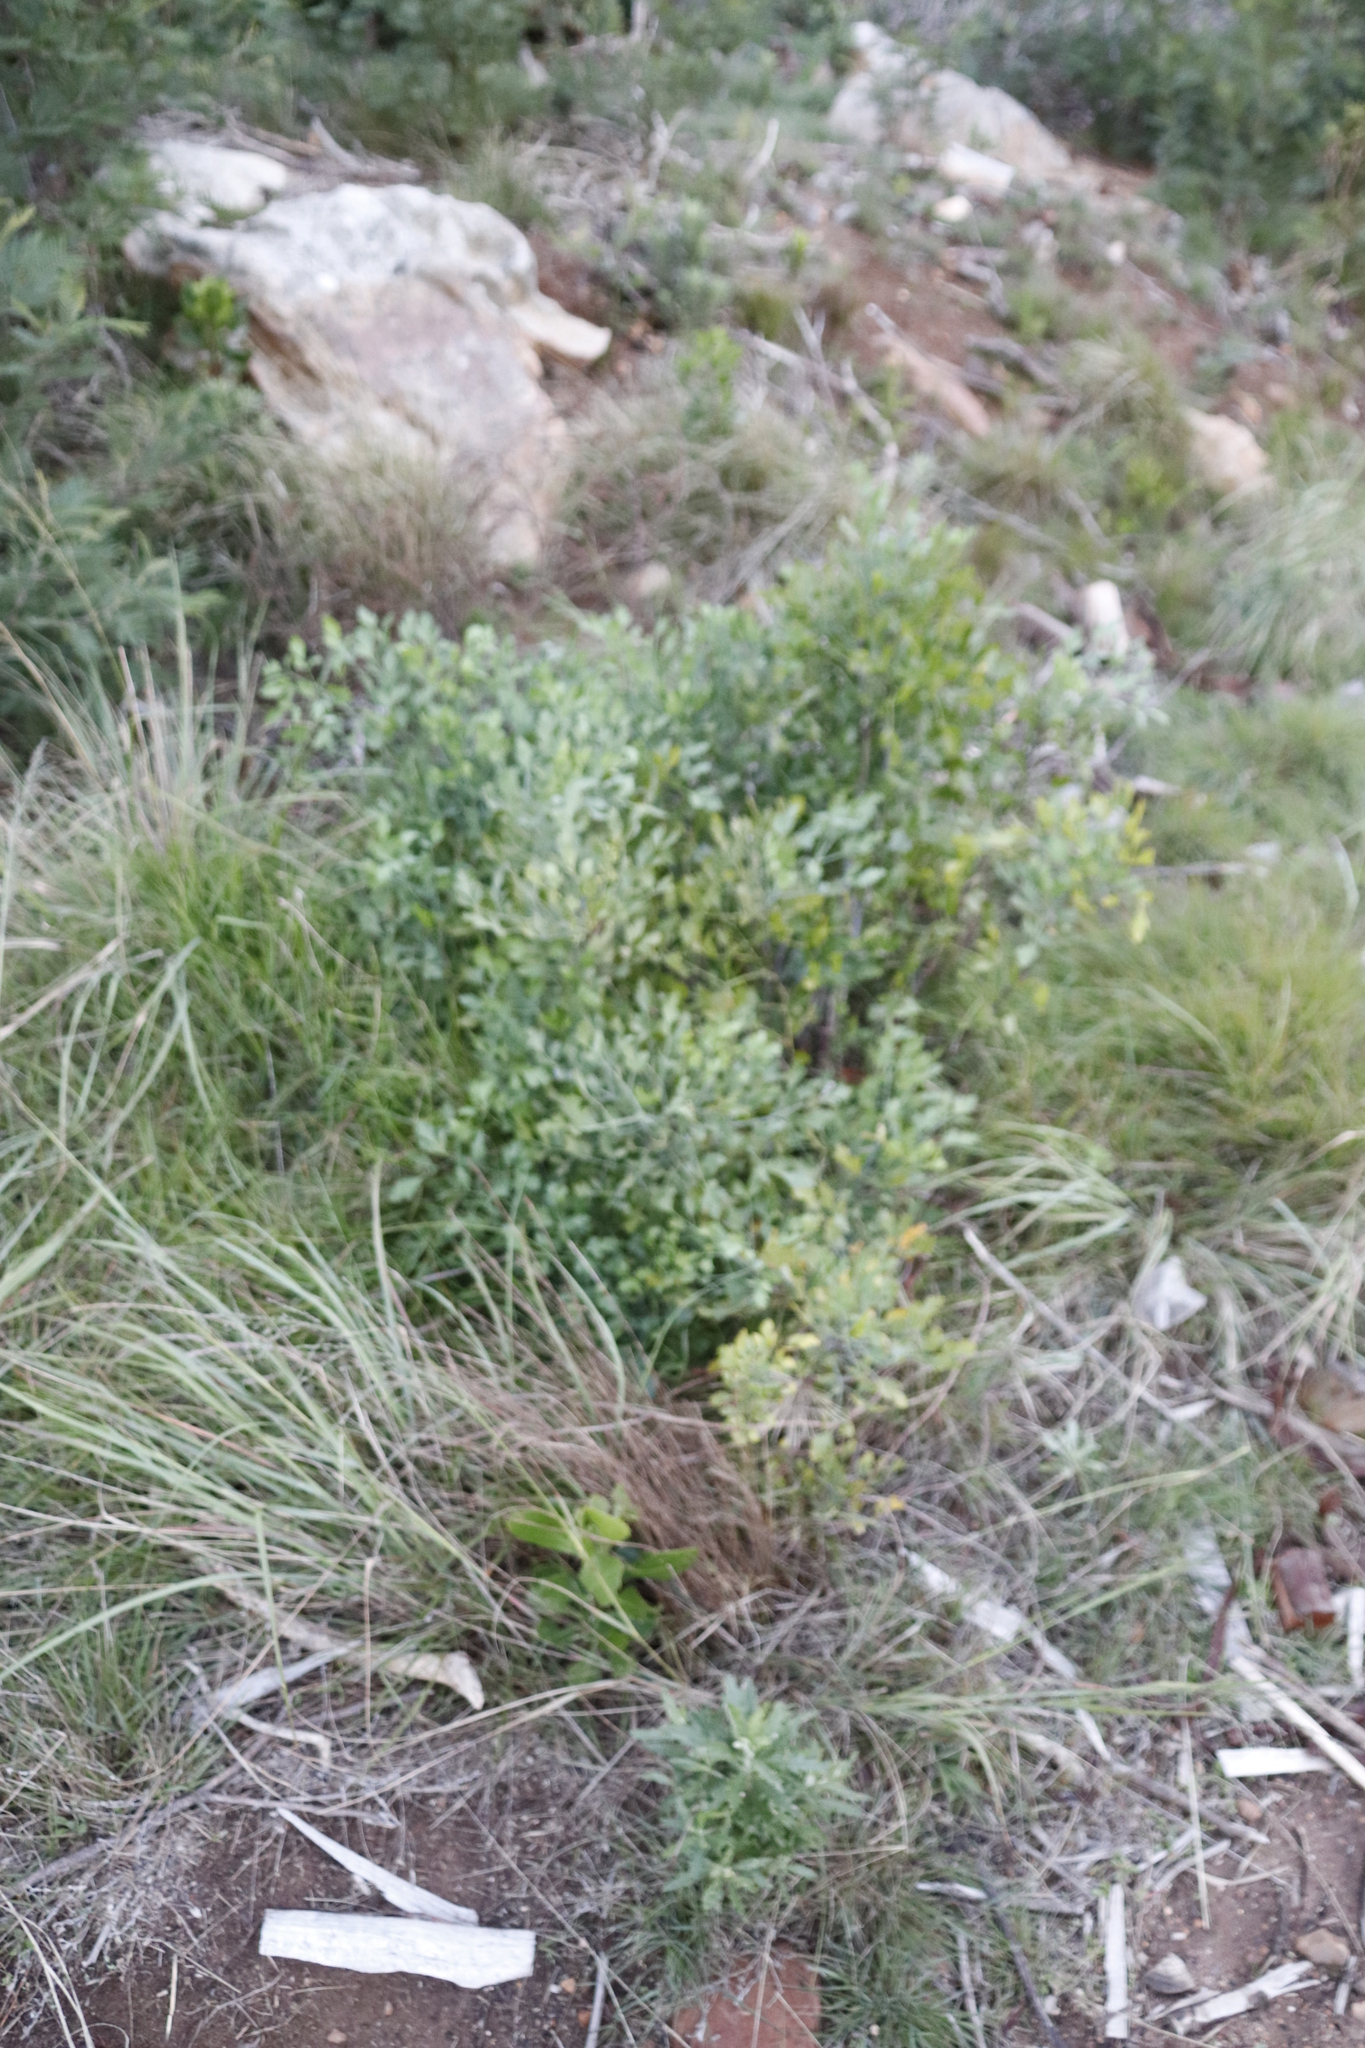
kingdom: Plantae
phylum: Tracheophyta
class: Magnoliopsida
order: Apiales
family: Apiaceae
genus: Notobubon
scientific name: Notobubon galbanum
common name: Blisterbush
